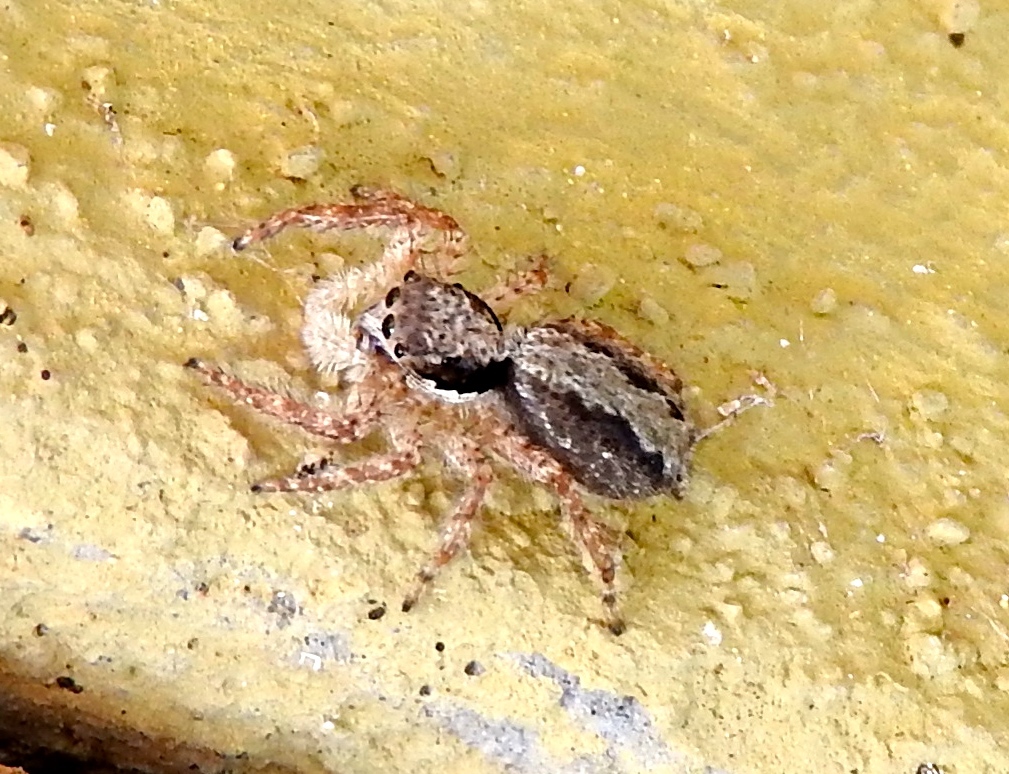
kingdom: Animalia
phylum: Arthropoda
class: Arachnida
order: Araneae
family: Salticidae
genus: Balmaceda
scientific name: Balmaceda
